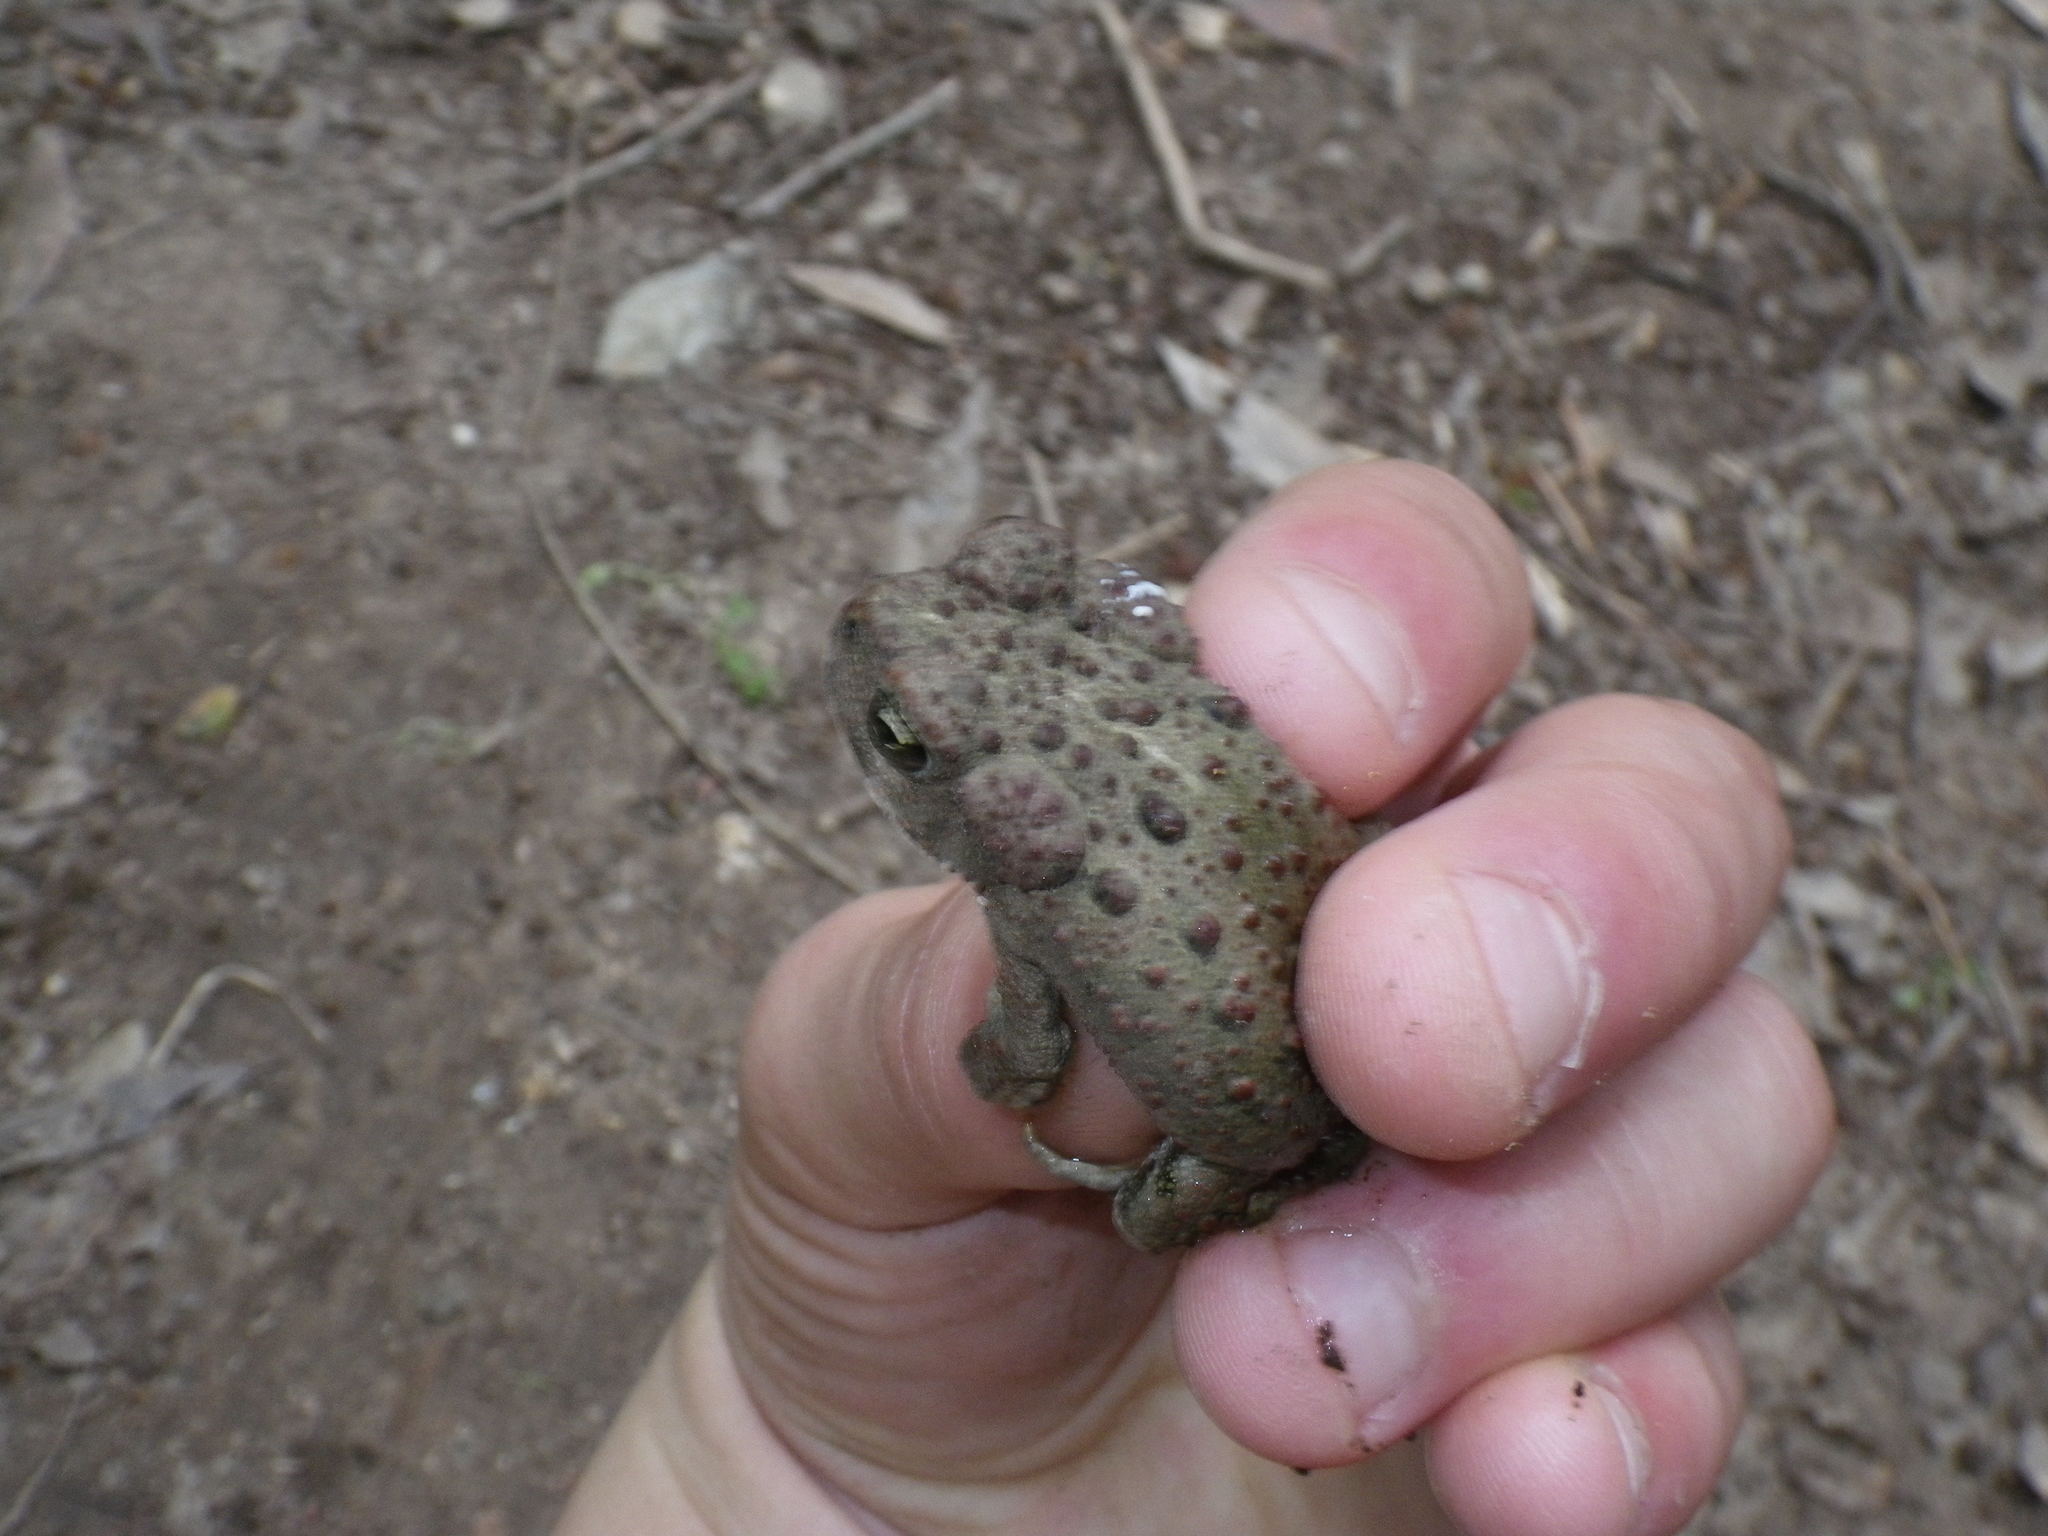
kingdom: Animalia
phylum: Chordata
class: Amphibia
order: Anura
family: Bufonidae
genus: Anaxyrus
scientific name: Anaxyrus boreas
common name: Western toad
